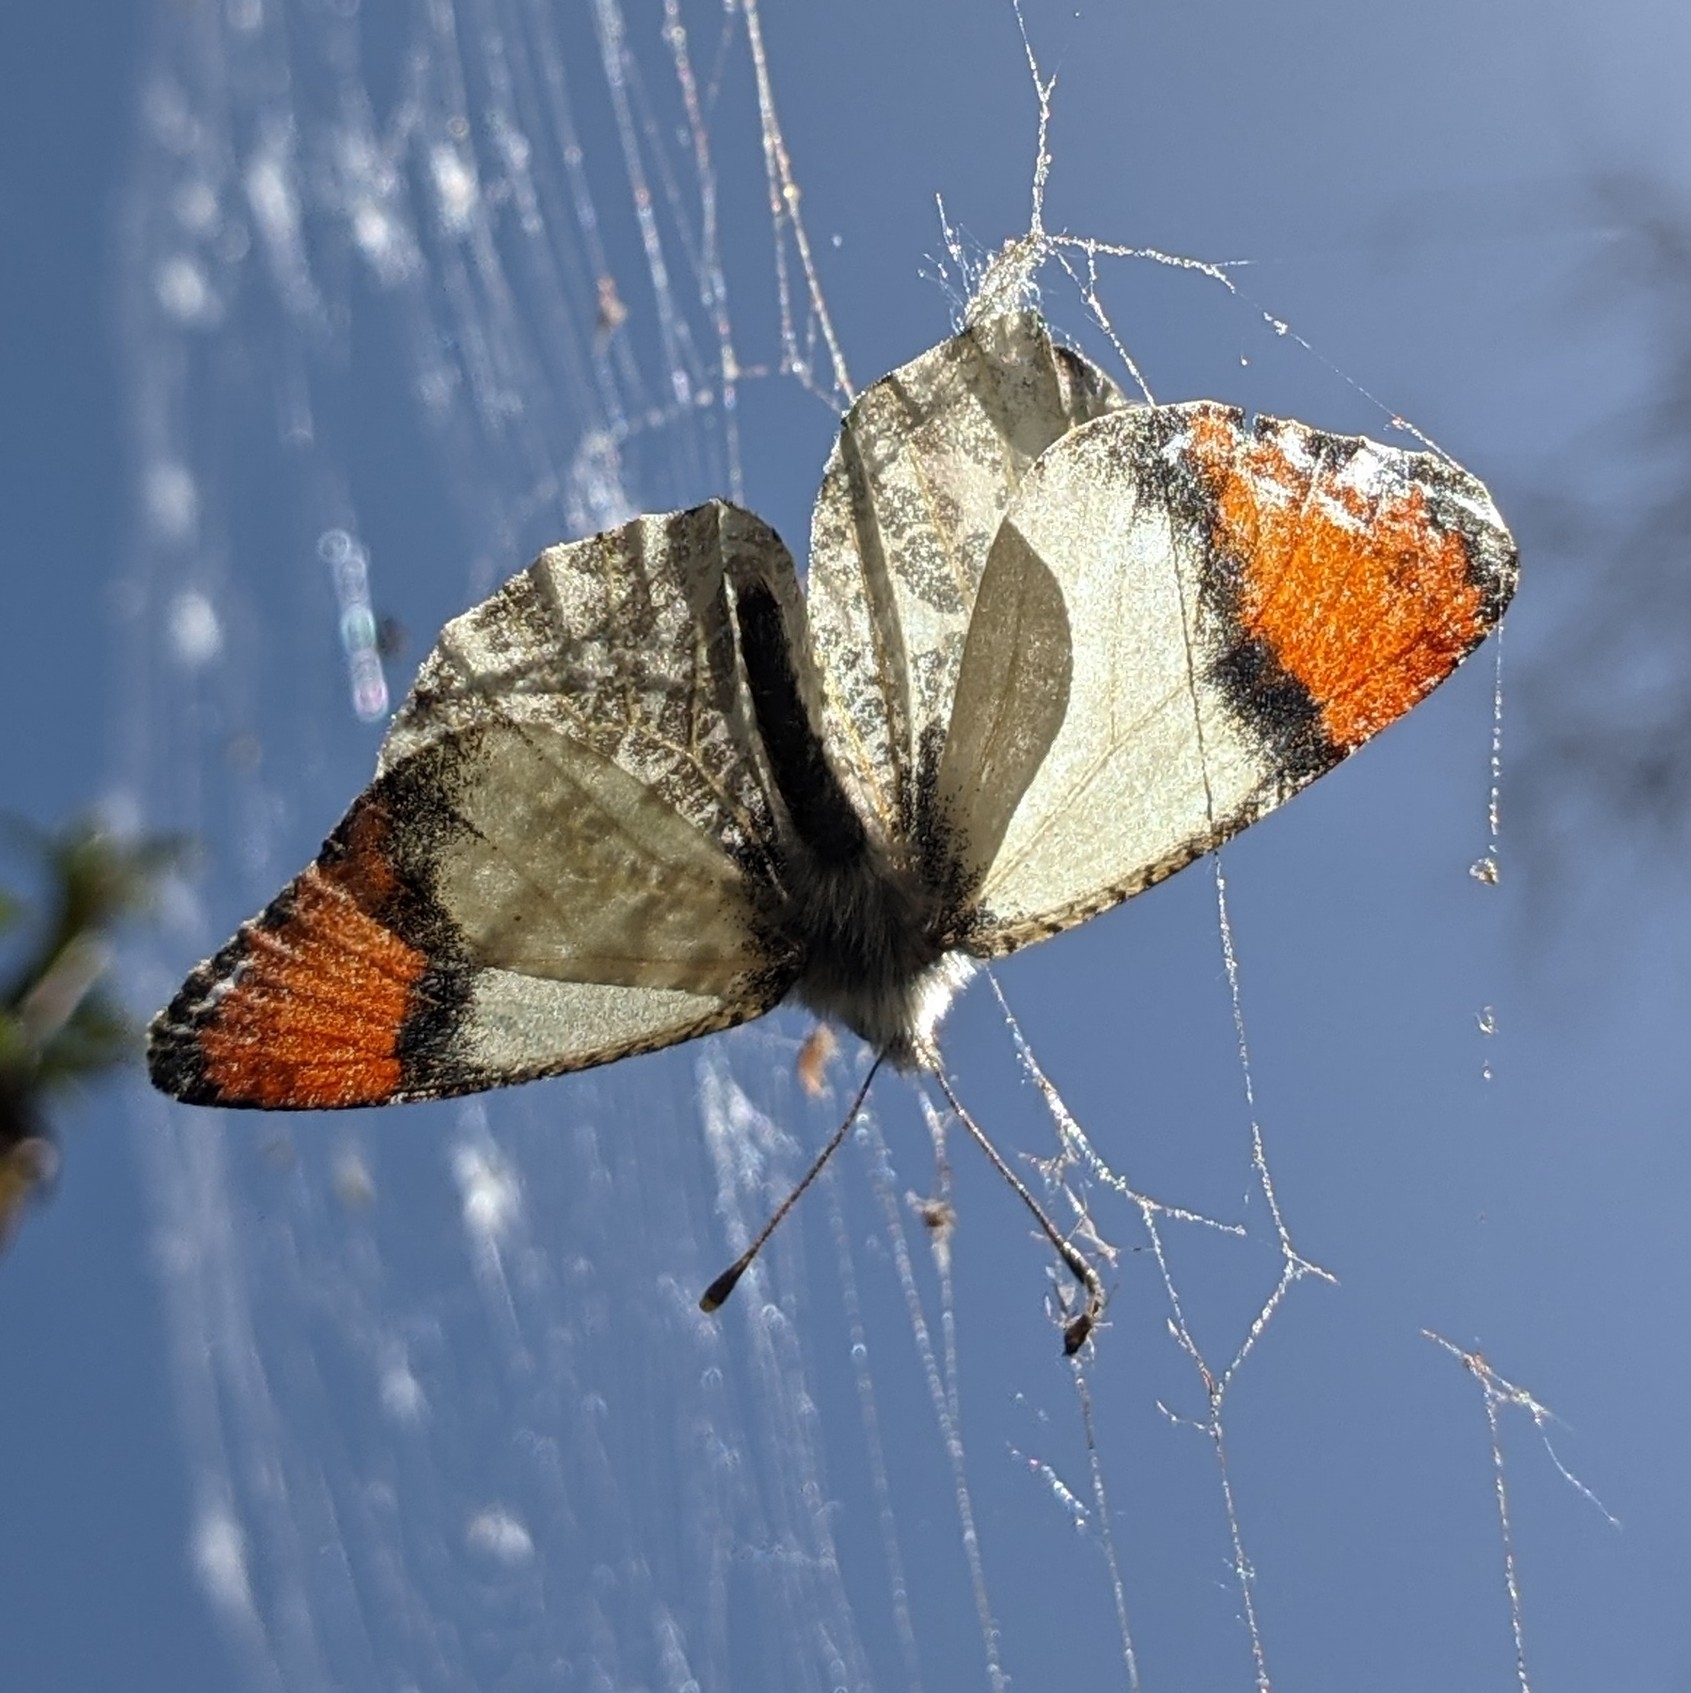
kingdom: Animalia
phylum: Arthropoda
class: Insecta
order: Lepidoptera
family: Pieridae
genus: Anthocharis
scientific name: Anthocharis sara
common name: Sara's orangetip
